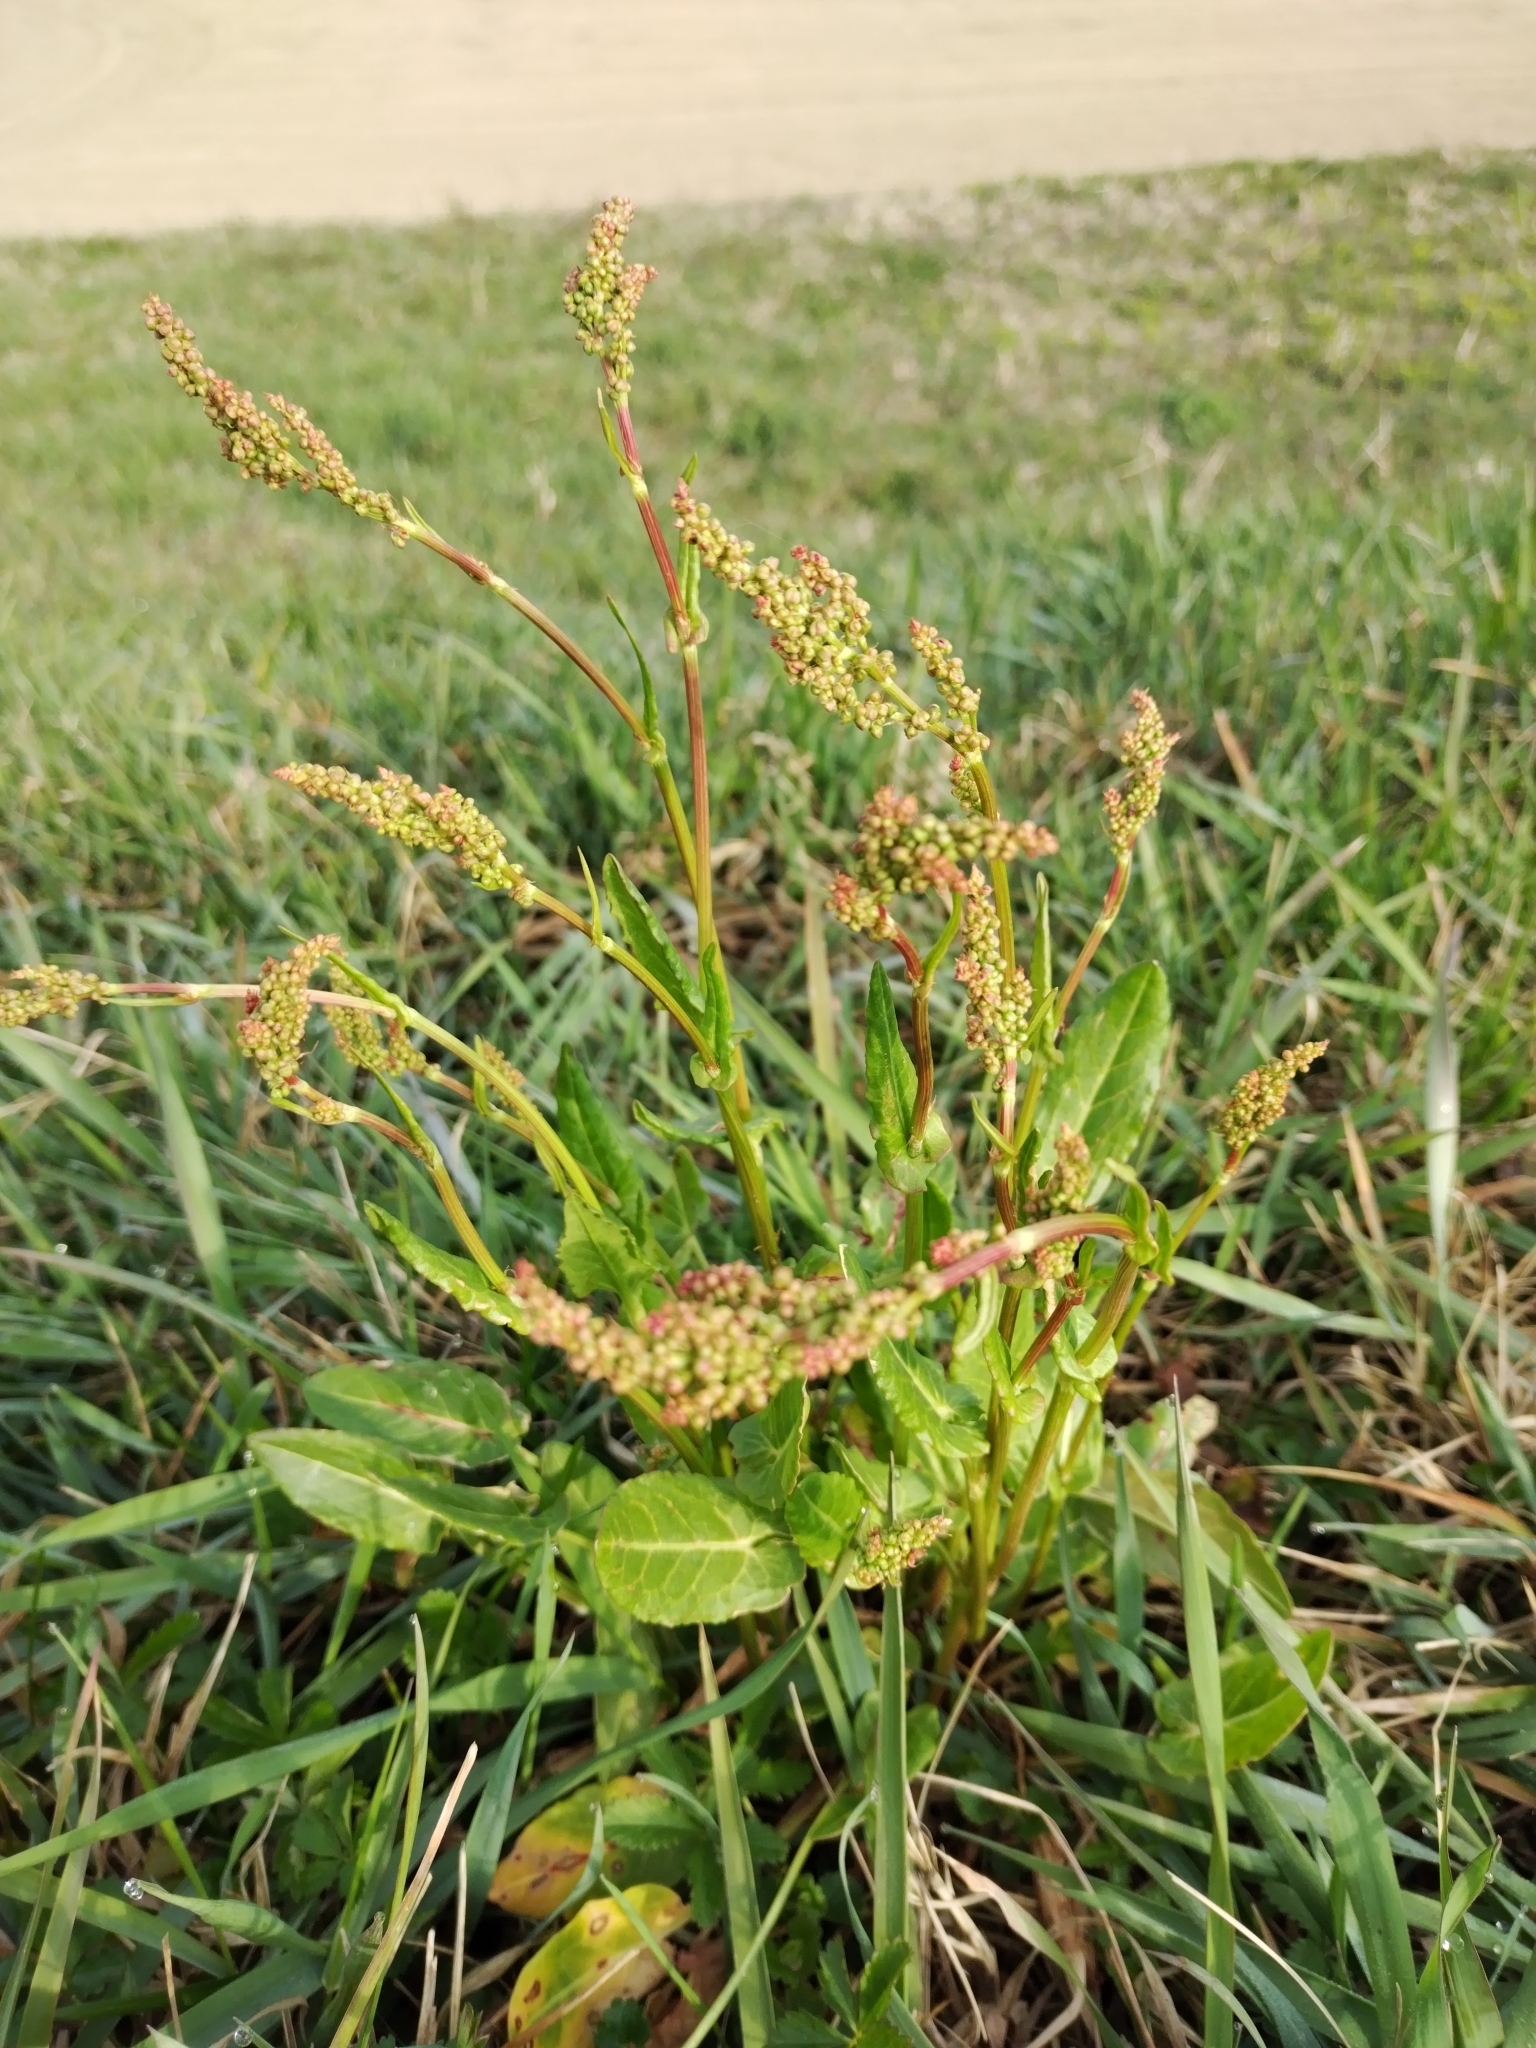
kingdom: Plantae
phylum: Tracheophyta
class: Magnoliopsida
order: Caryophyllales
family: Polygonaceae
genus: Rumex
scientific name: Rumex acetosa
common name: Garden sorrel
